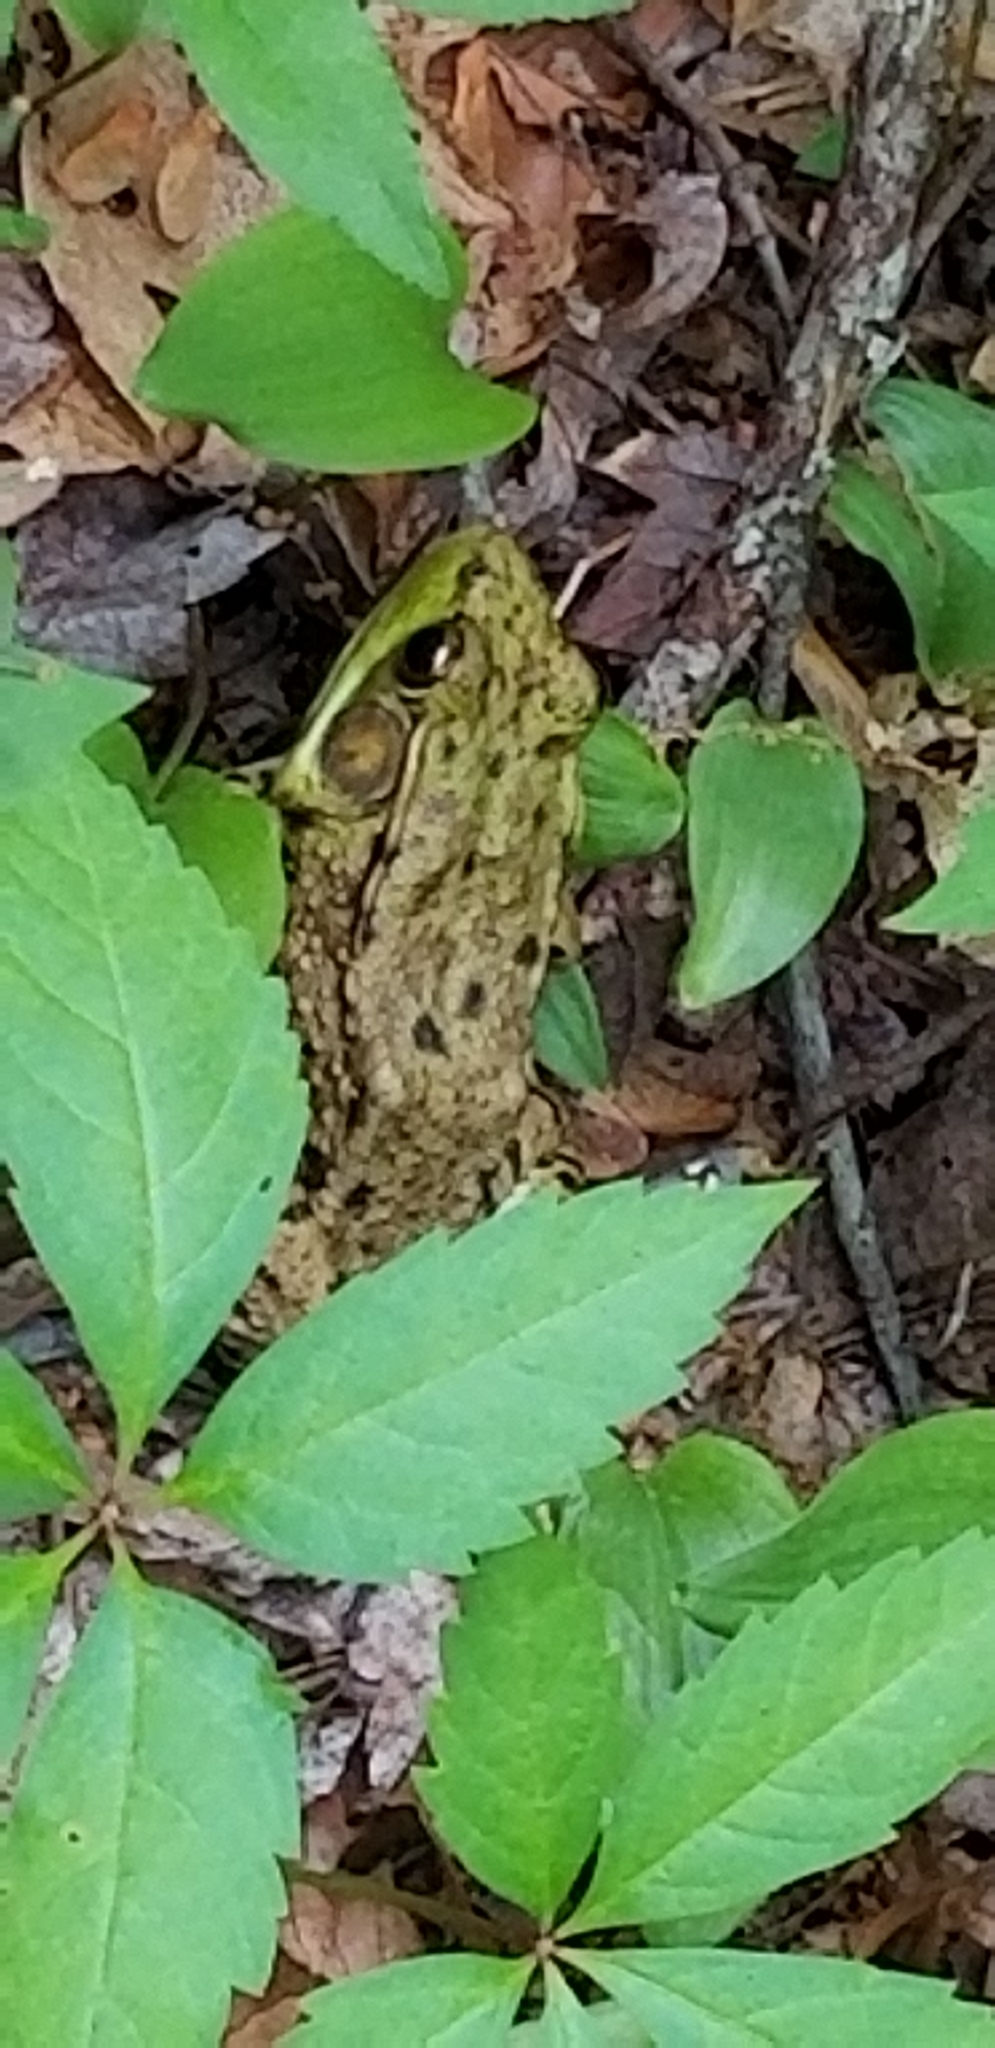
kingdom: Animalia
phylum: Chordata
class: Amphibia
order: Anura
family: Ranidae
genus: Lithobates
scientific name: Lithobates clamitans
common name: Green frog
